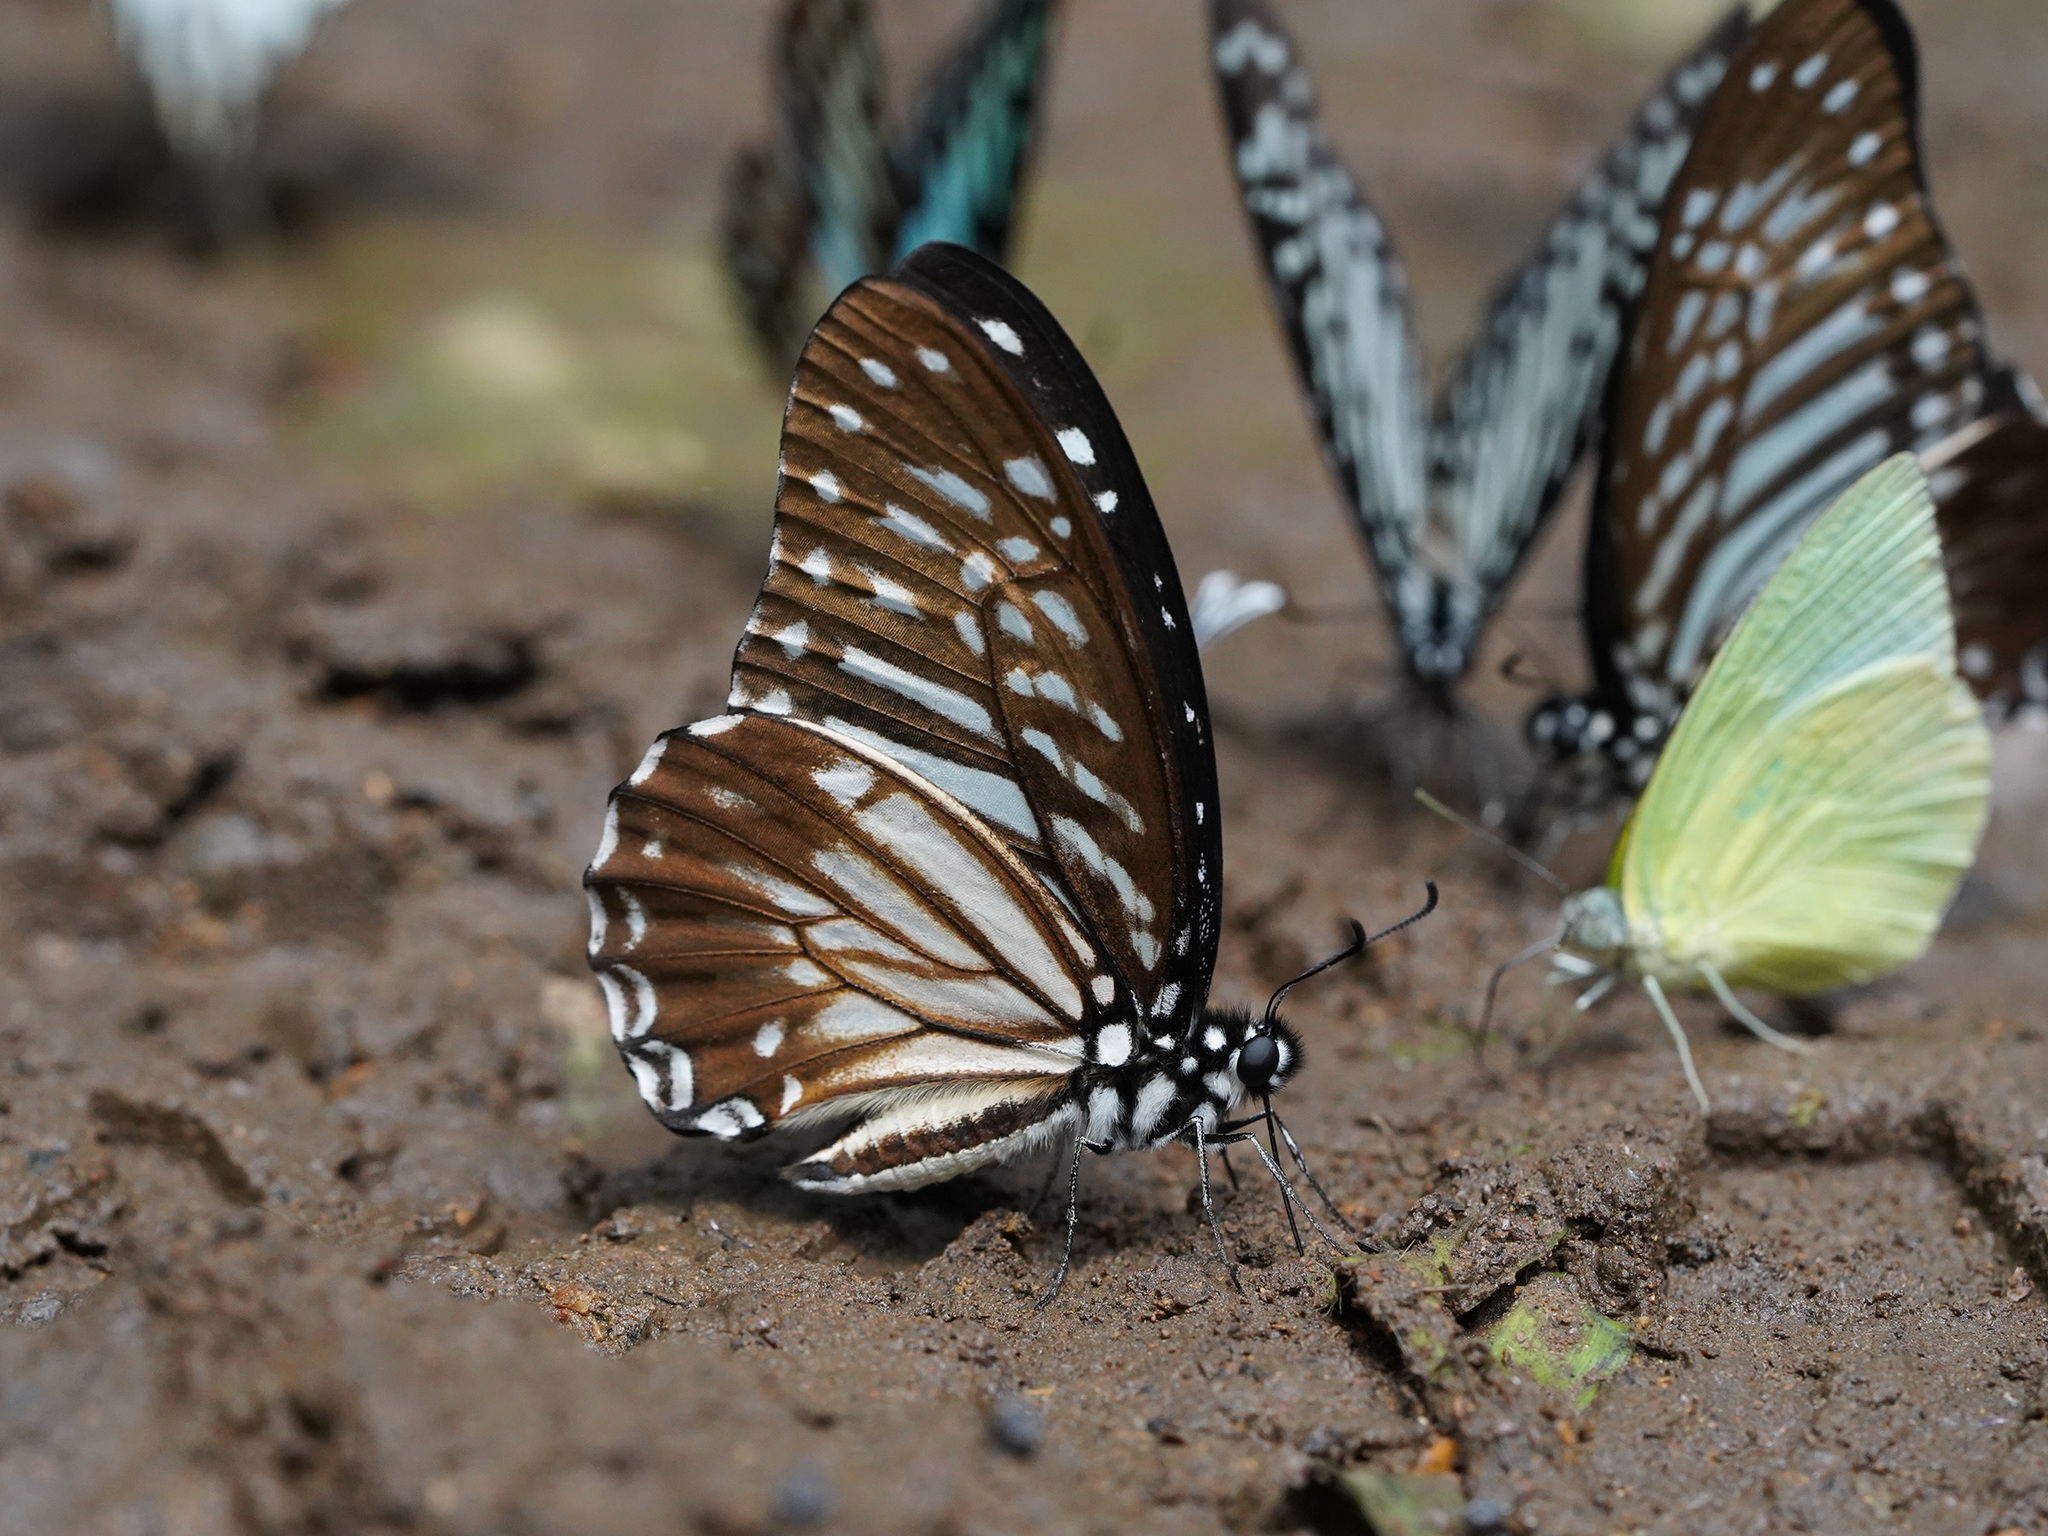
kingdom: Animalia
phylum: Arthropoda
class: Insecta
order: Lepidoptera
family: Papilionidae
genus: Graphium
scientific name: Graphium macareus
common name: Lesser zebra
